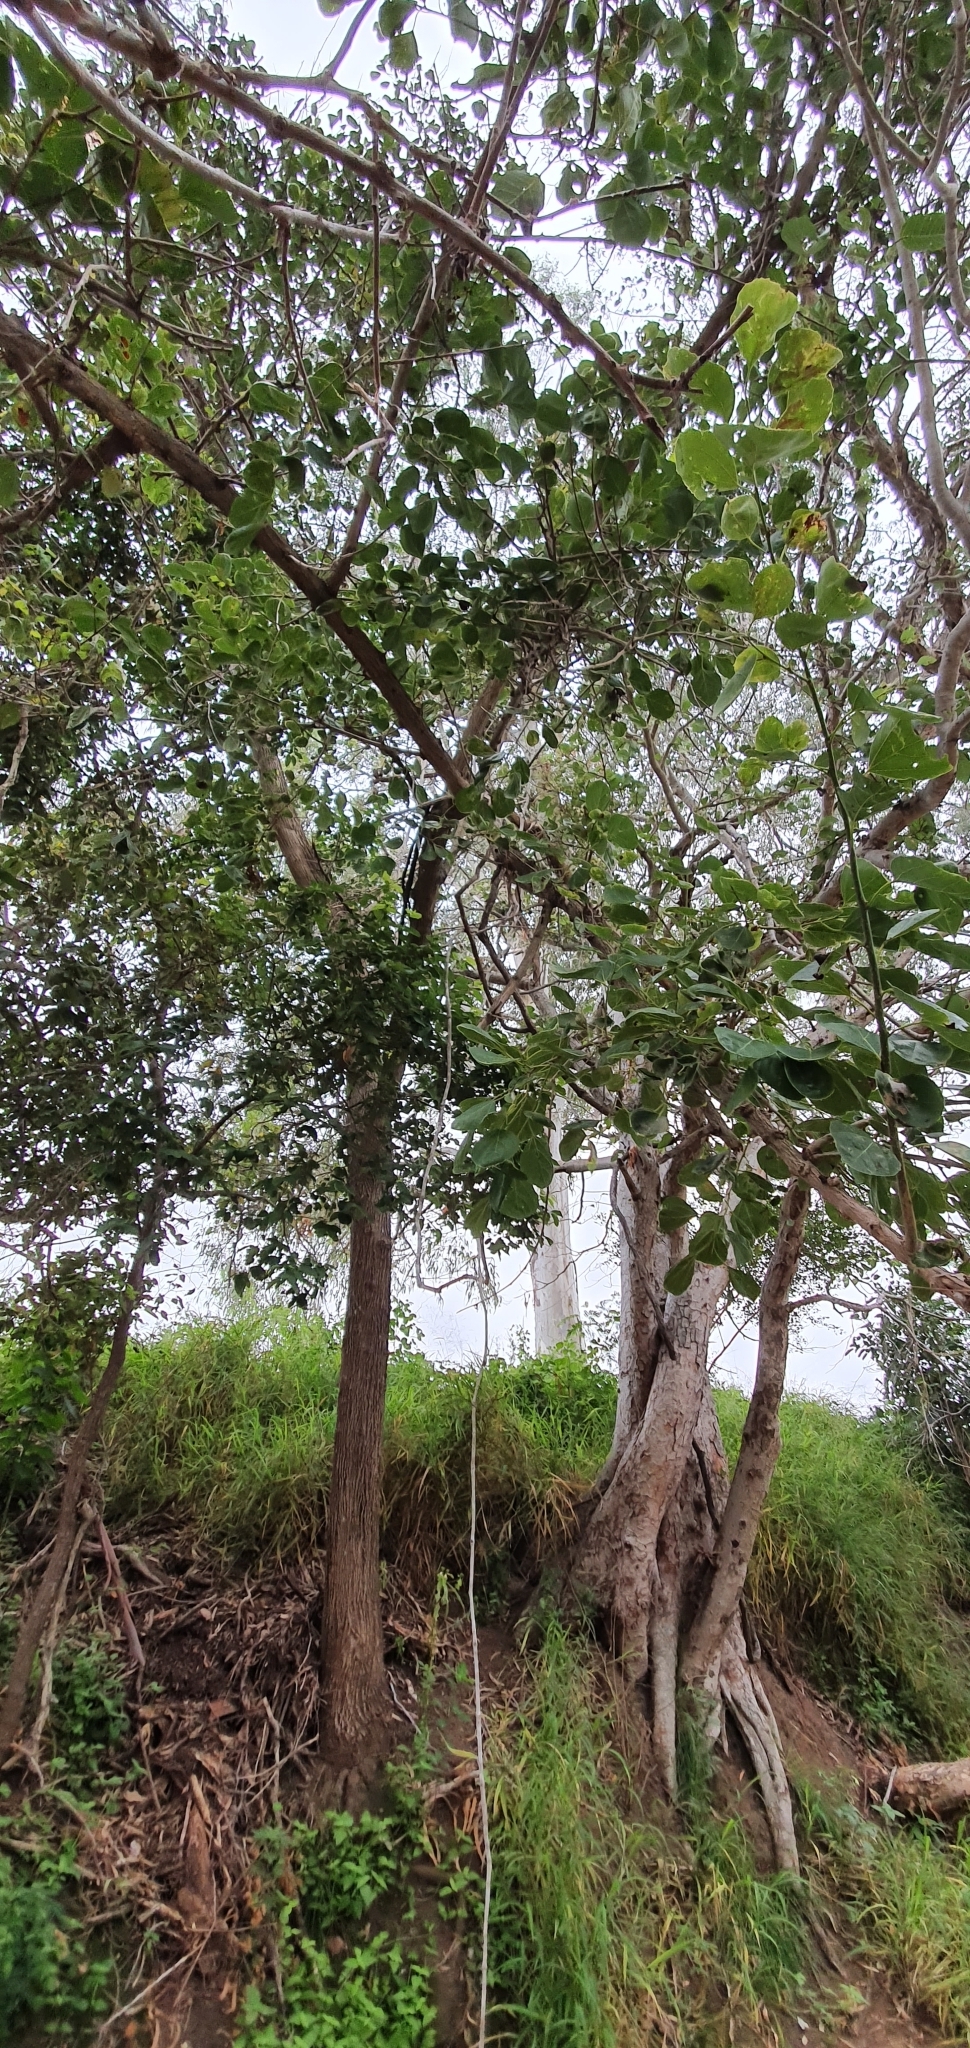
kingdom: Plantae
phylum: Tracheophyta
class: Magnoliopsida
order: Boraginales
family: Cordiaceae
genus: Cordia
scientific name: Cordia dichotoma
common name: Fragrant manjack
